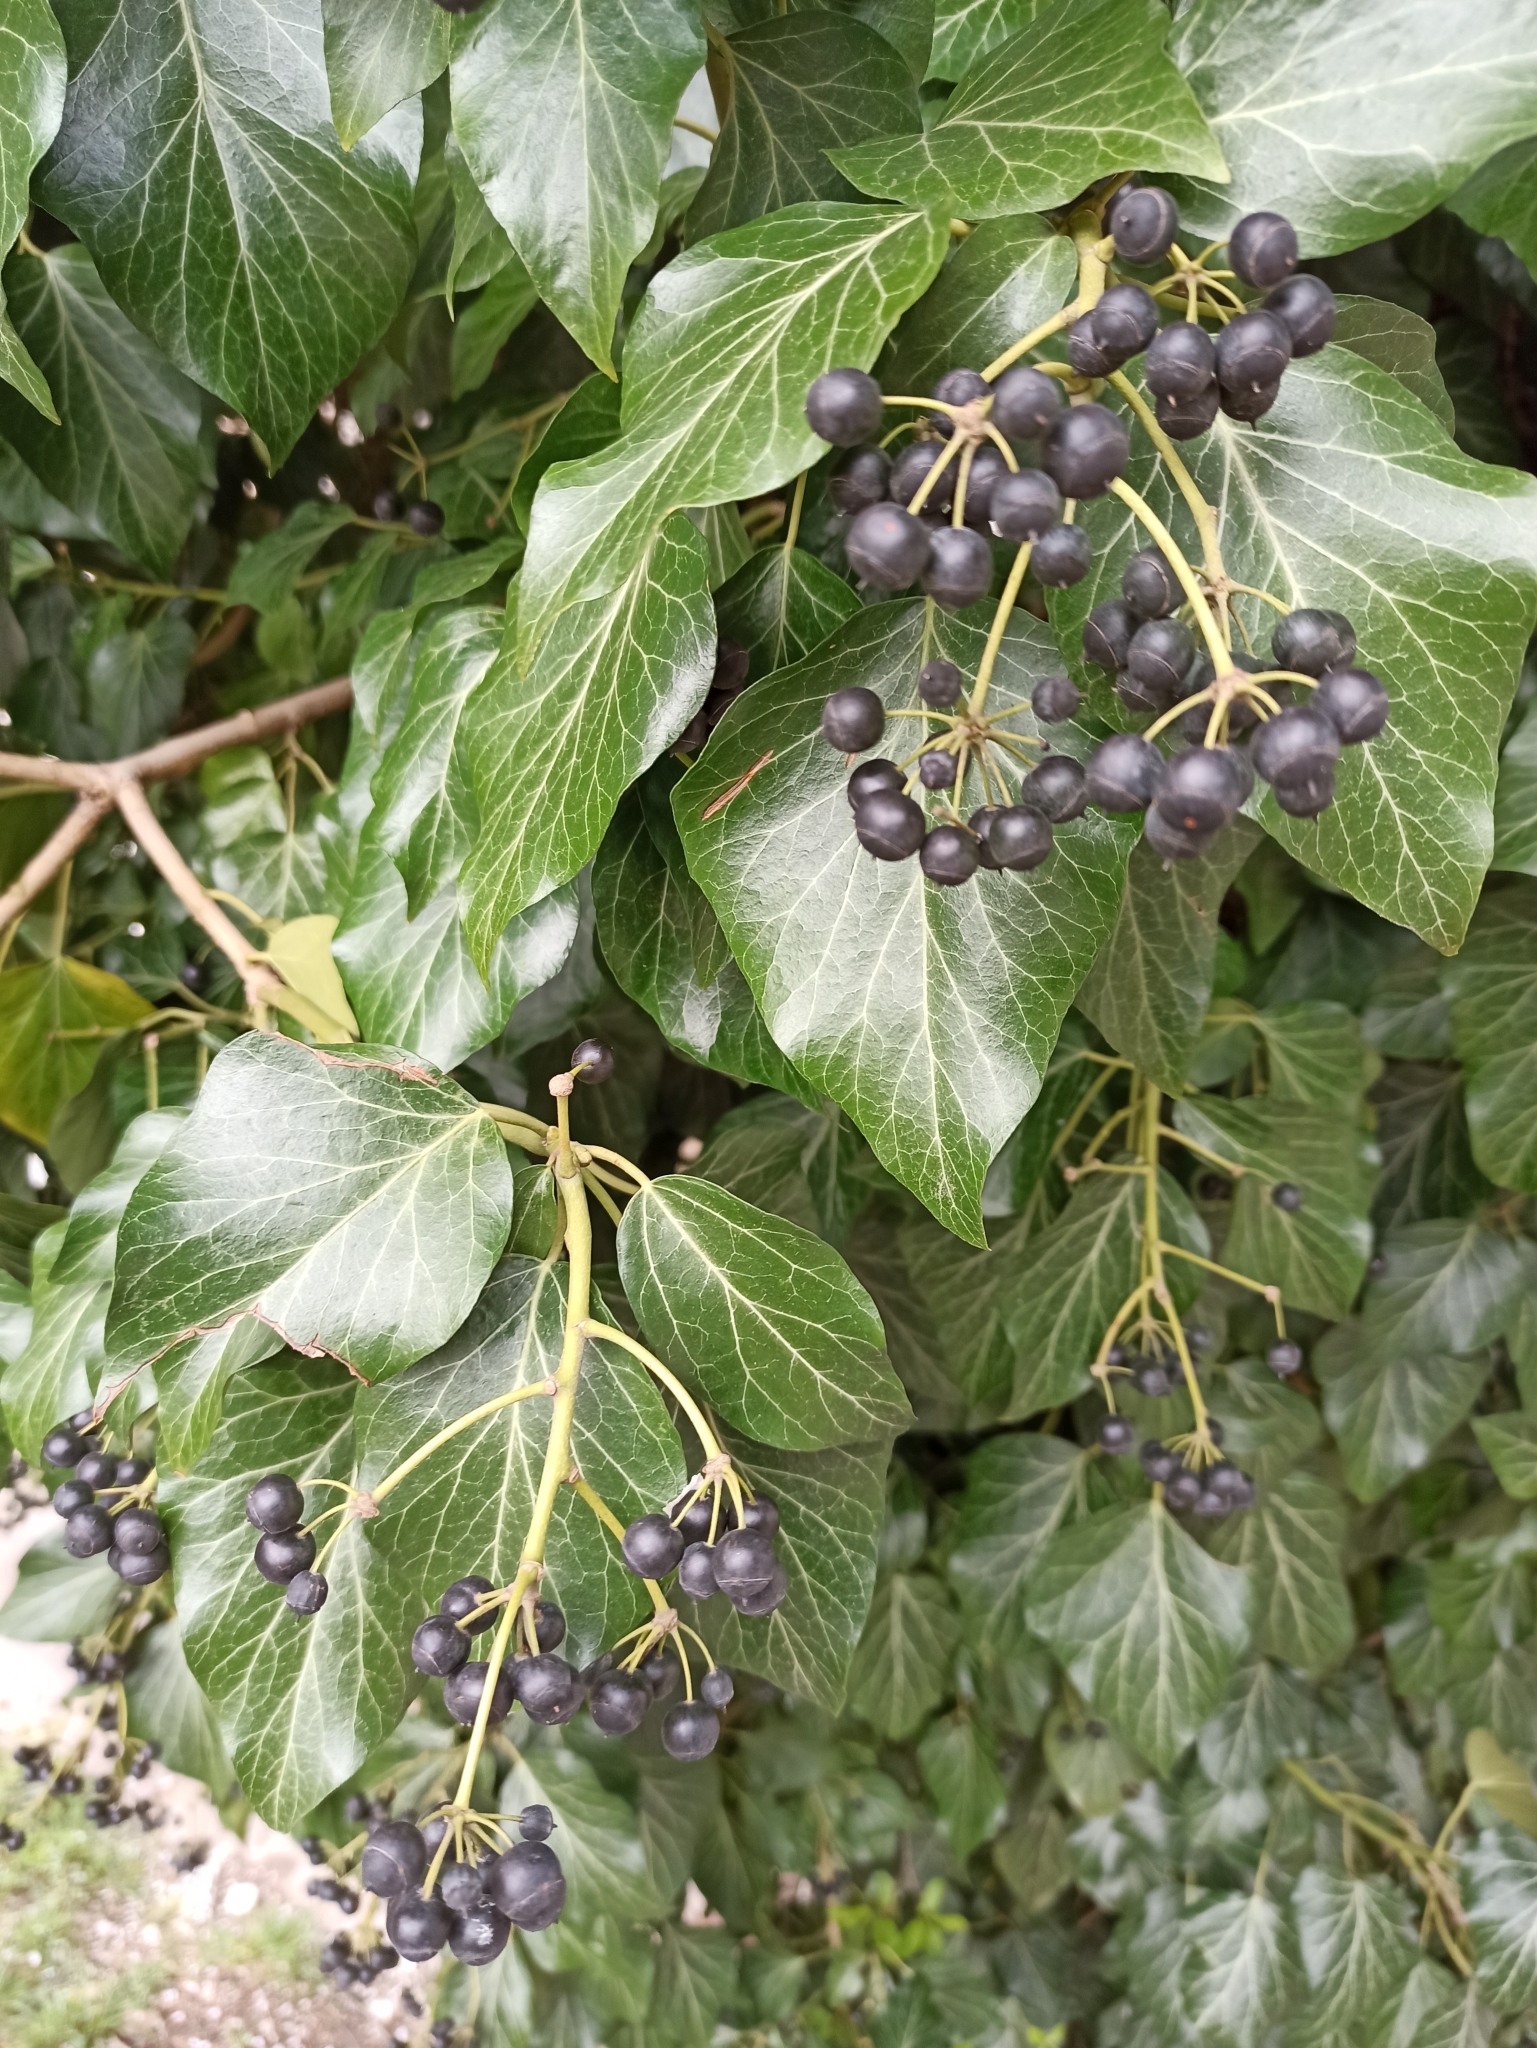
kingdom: Plantae
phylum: Tracheophyta
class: Magnoliopsida
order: Apiales
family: Araliaceae
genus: Hedera
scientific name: Hedera helix
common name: Ivy
